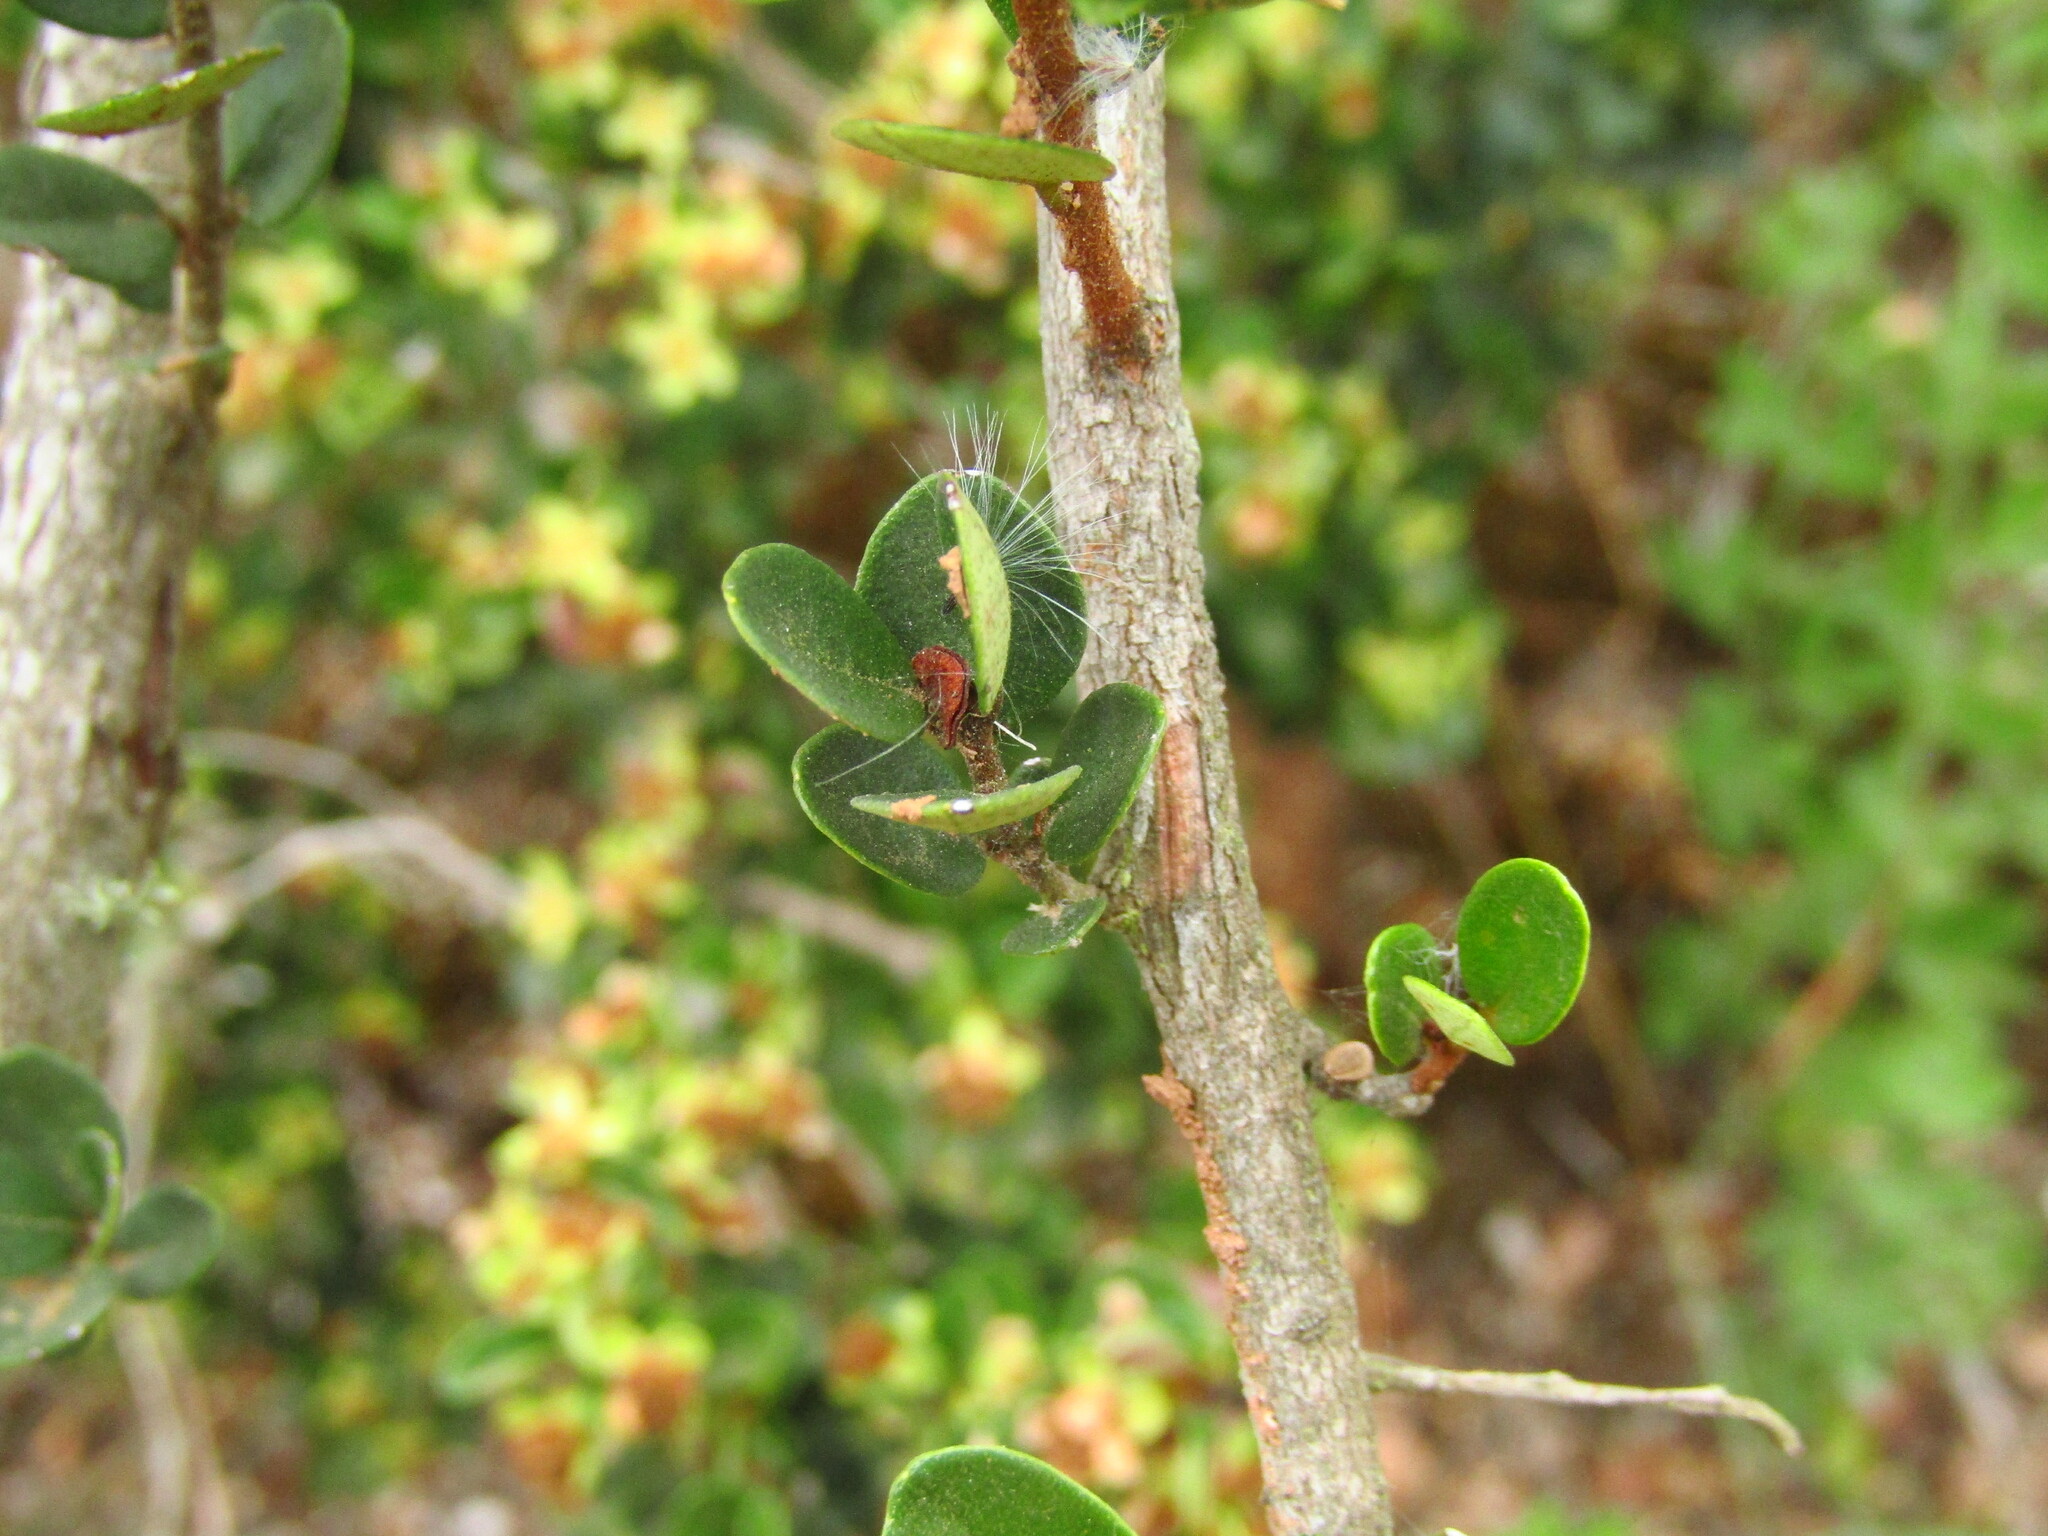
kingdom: Plantae
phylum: Tracheophyta
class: Magnoliopsida
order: Myrtales
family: Myrtaceae
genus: Myrceugenia
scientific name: Myrceugenia obtusa
